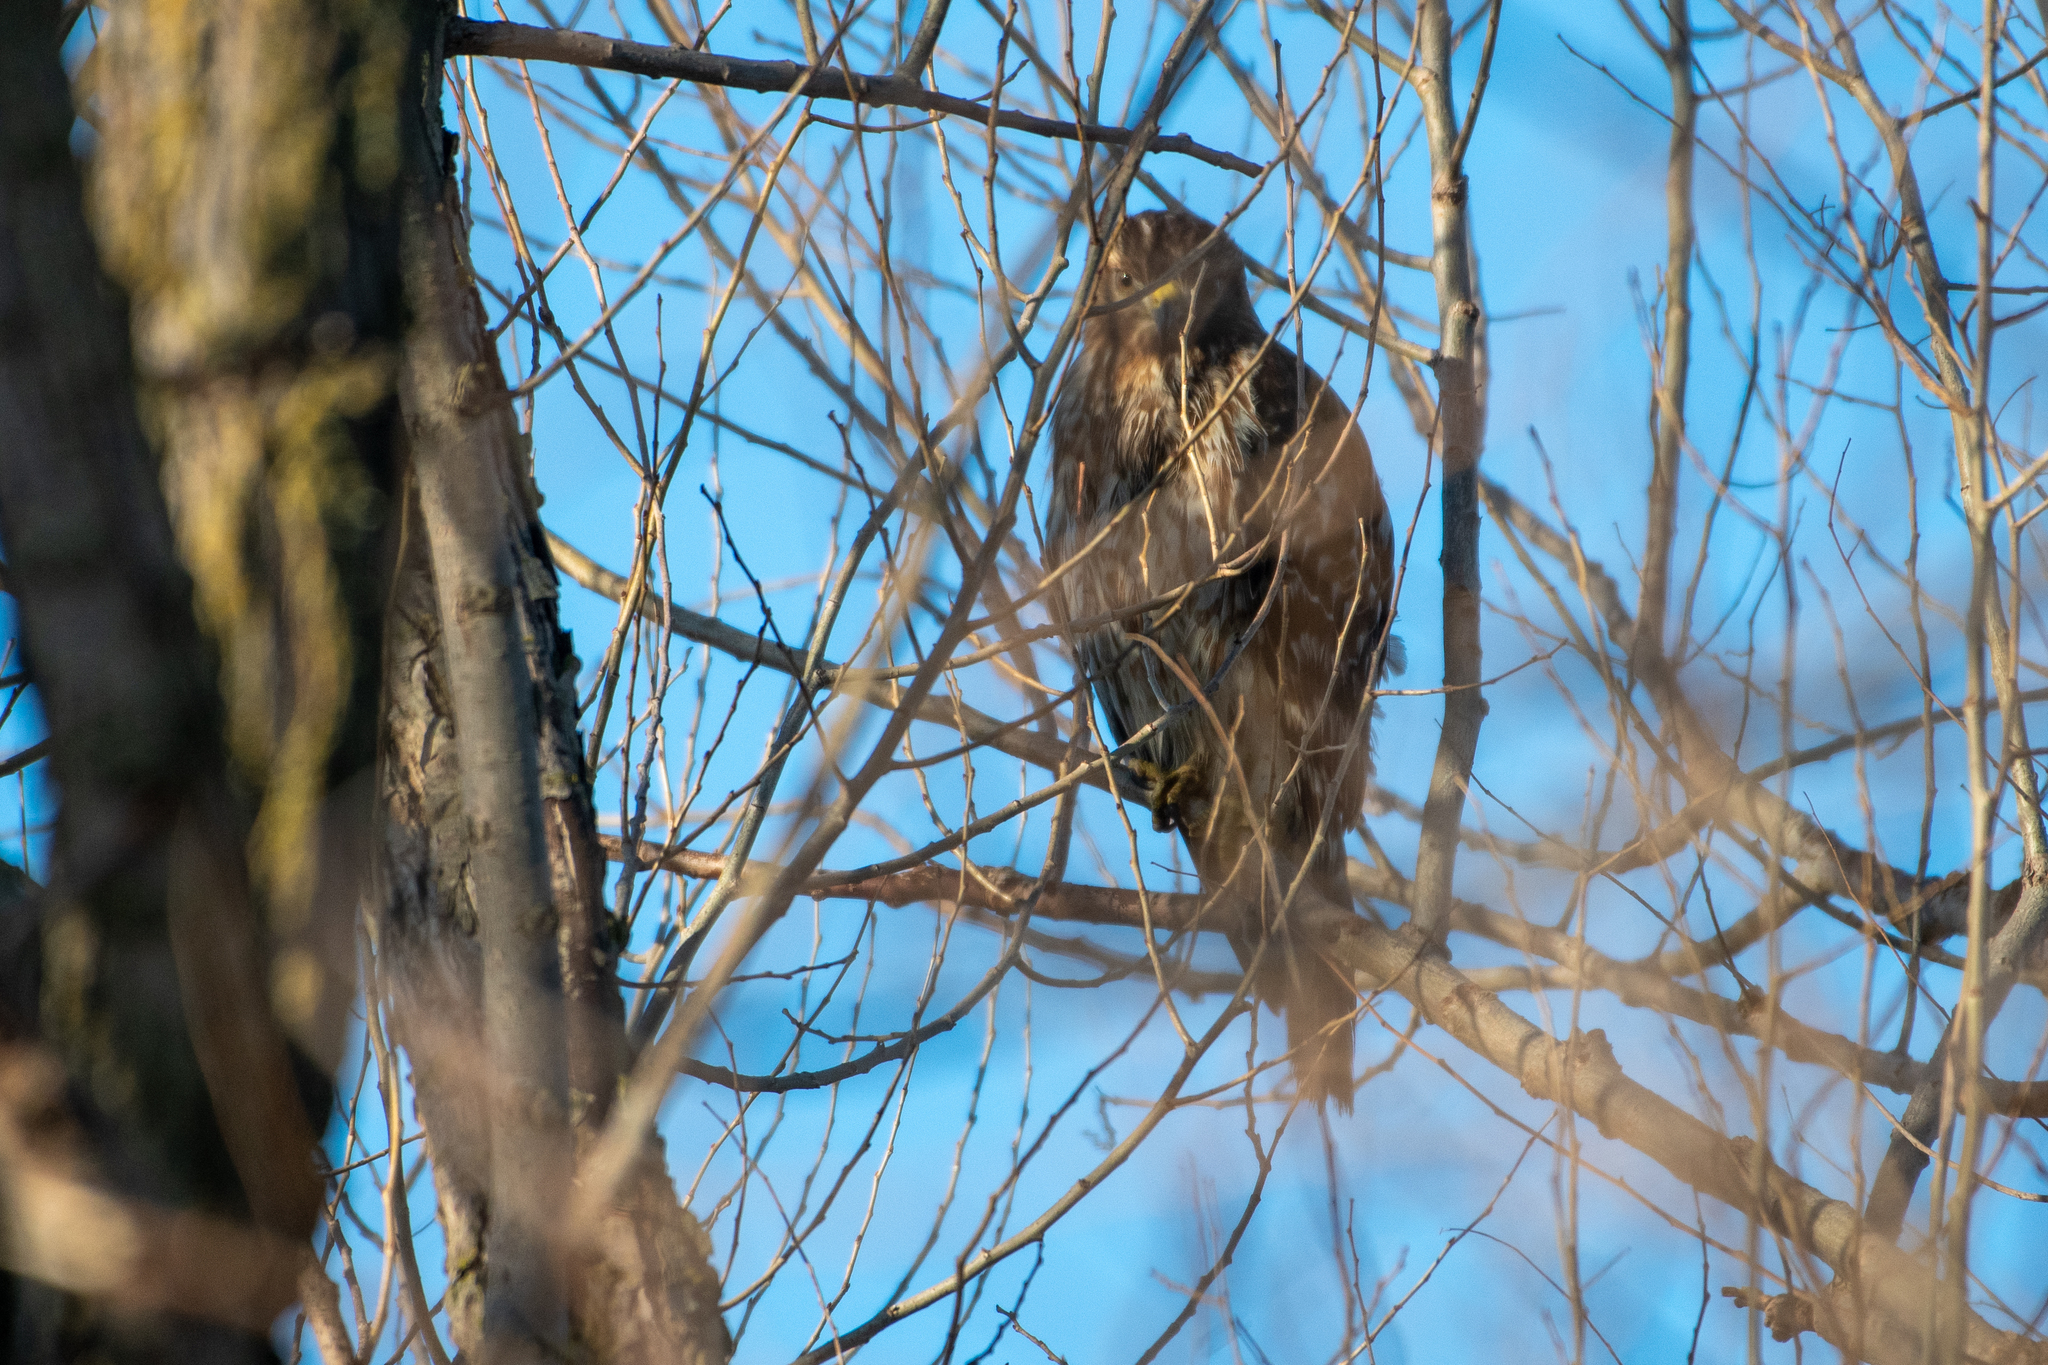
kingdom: Animalia
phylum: Chordata
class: Aves
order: Accipitriformes
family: Accipitridae
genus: Buteo
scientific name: Buteo lineatus
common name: Red-shouldered hawk
